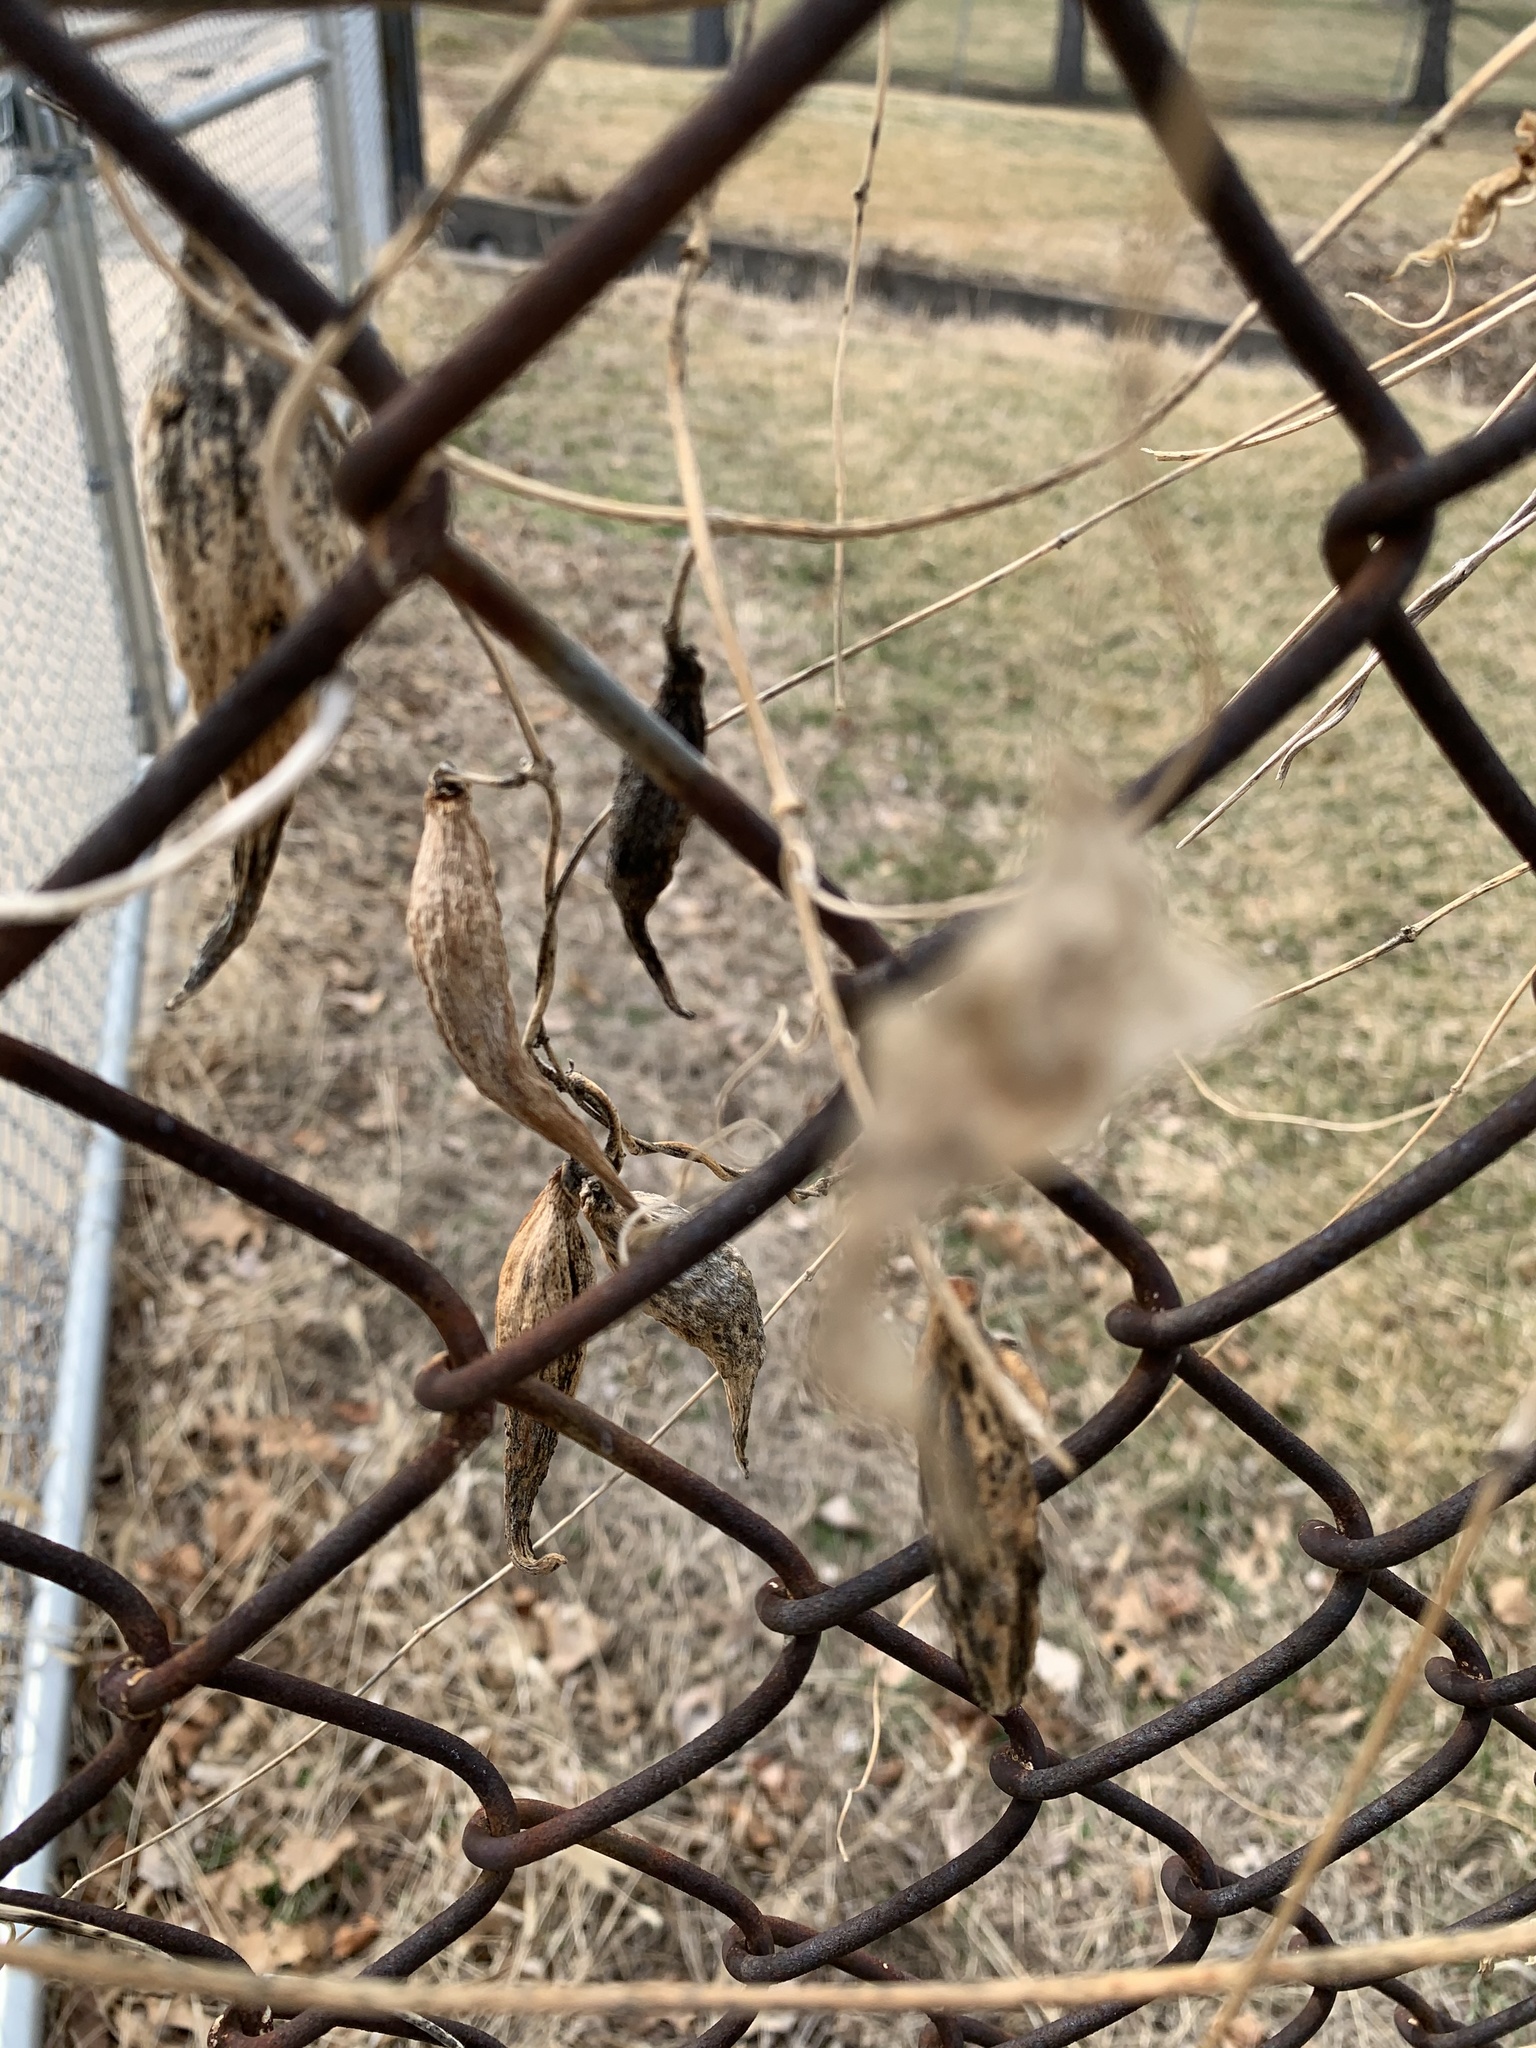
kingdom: Plantae
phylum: Tracheophyta
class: Magnoliopsida
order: Gentianales
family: Apocynaceae
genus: Cynanchum
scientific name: Cynanchum laeve
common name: Sandvine
